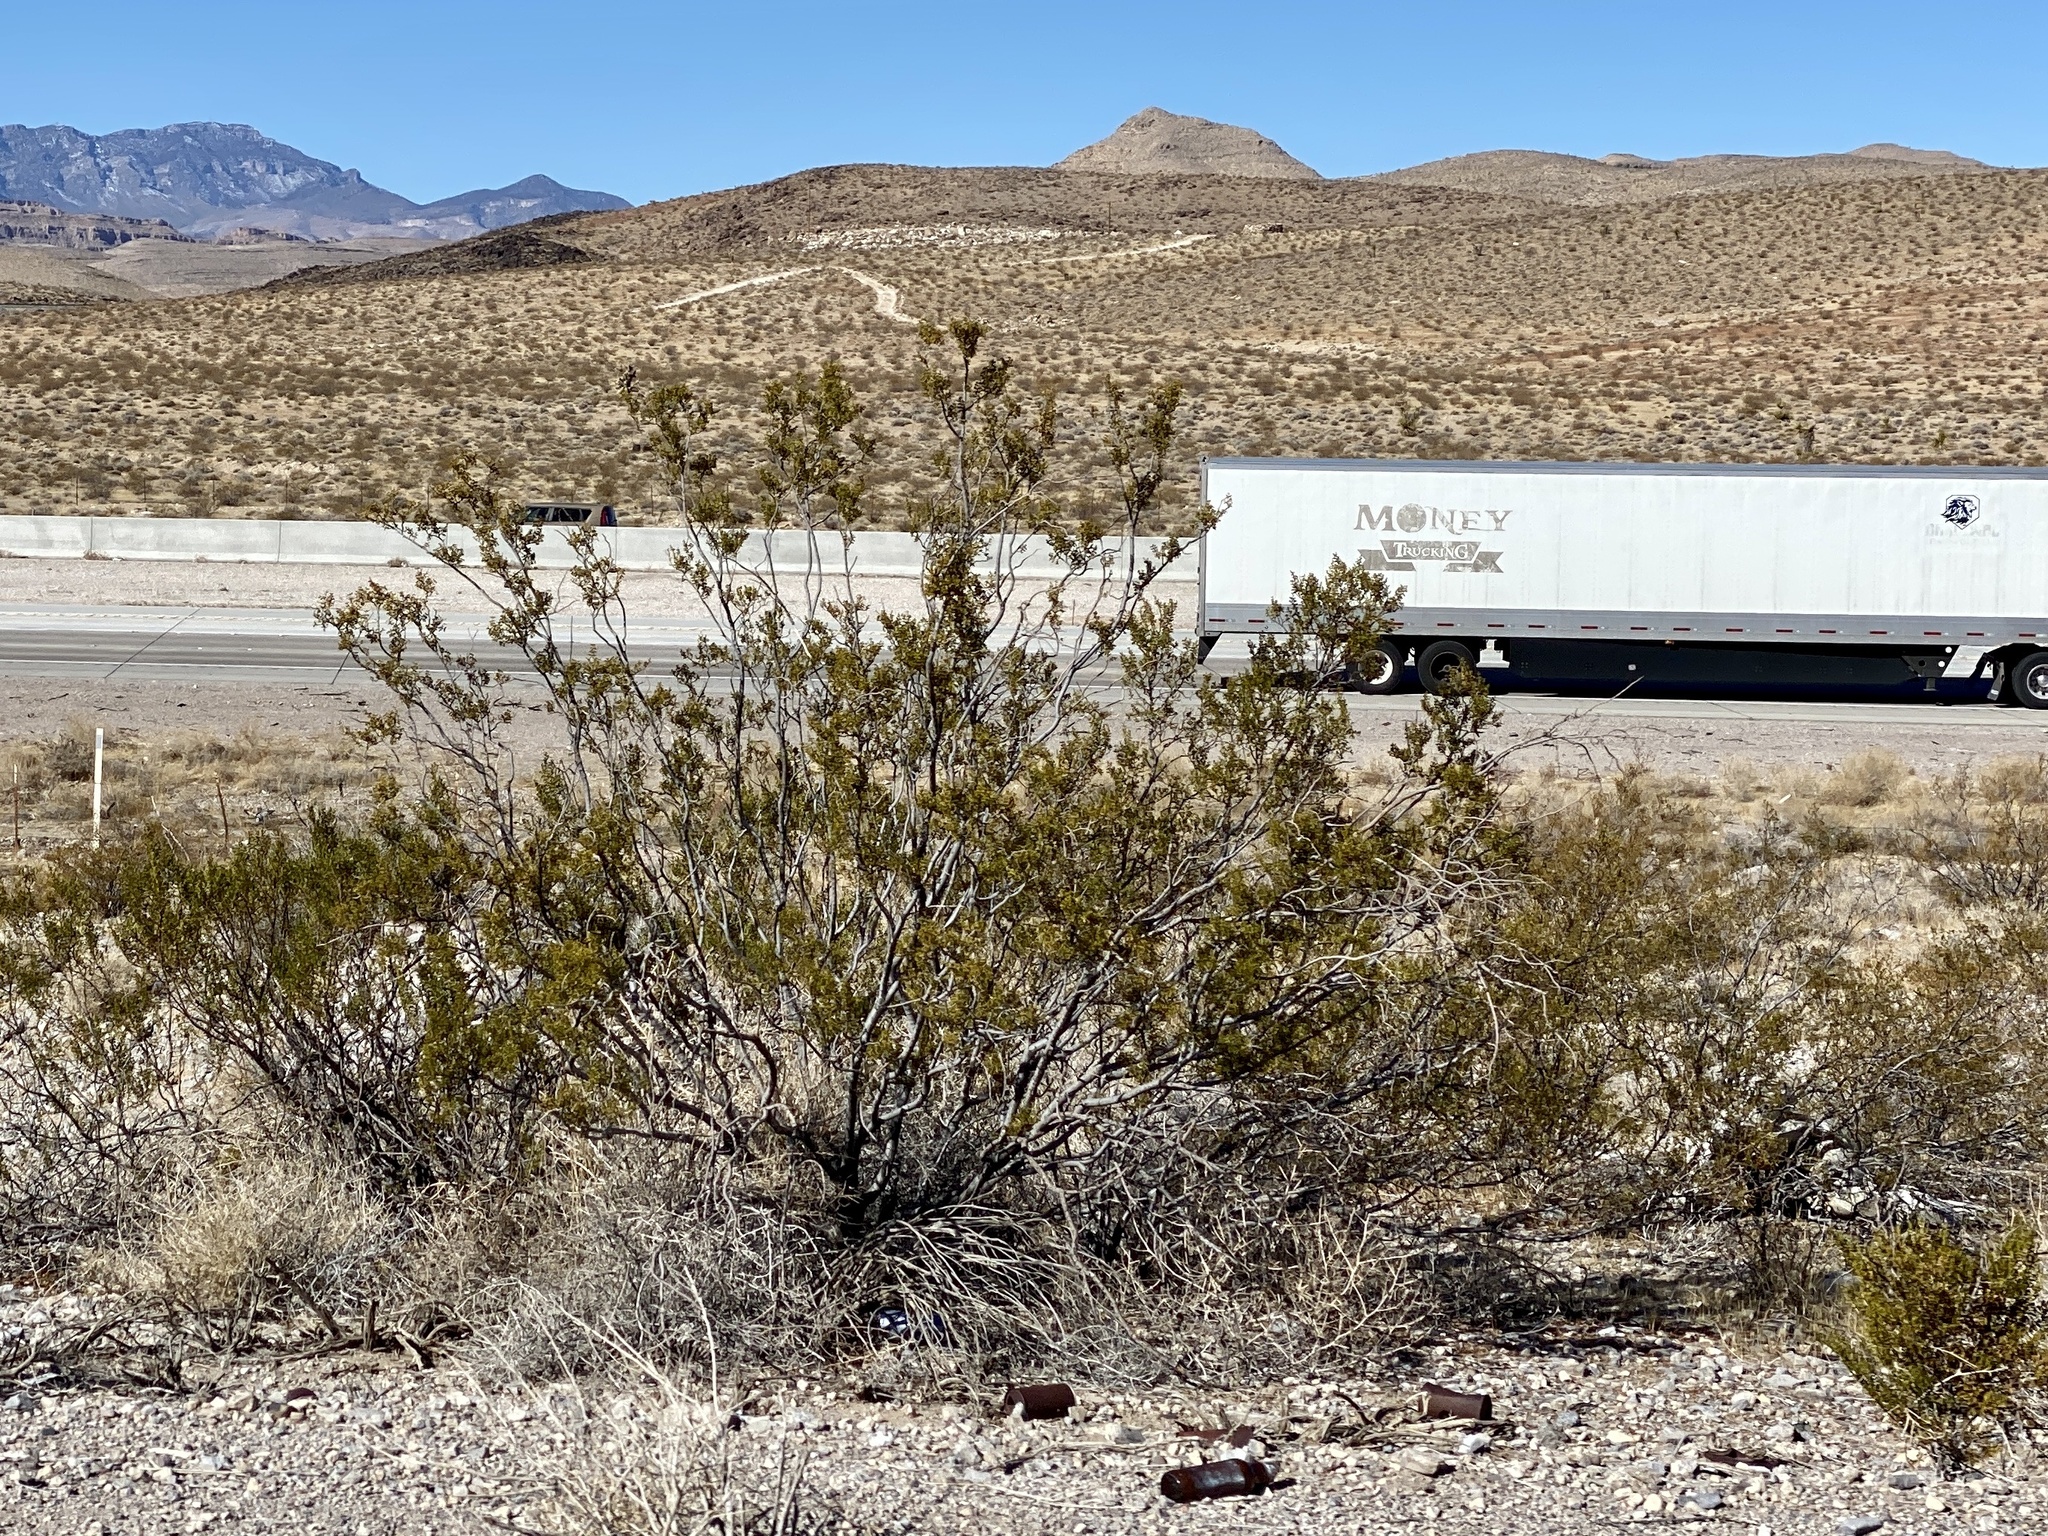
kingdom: Plantae
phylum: Tracheophyta
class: Magnoliopsida
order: Zygophyllales
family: Zygophyllaceae
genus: Larrea
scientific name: Larrea tridentata
